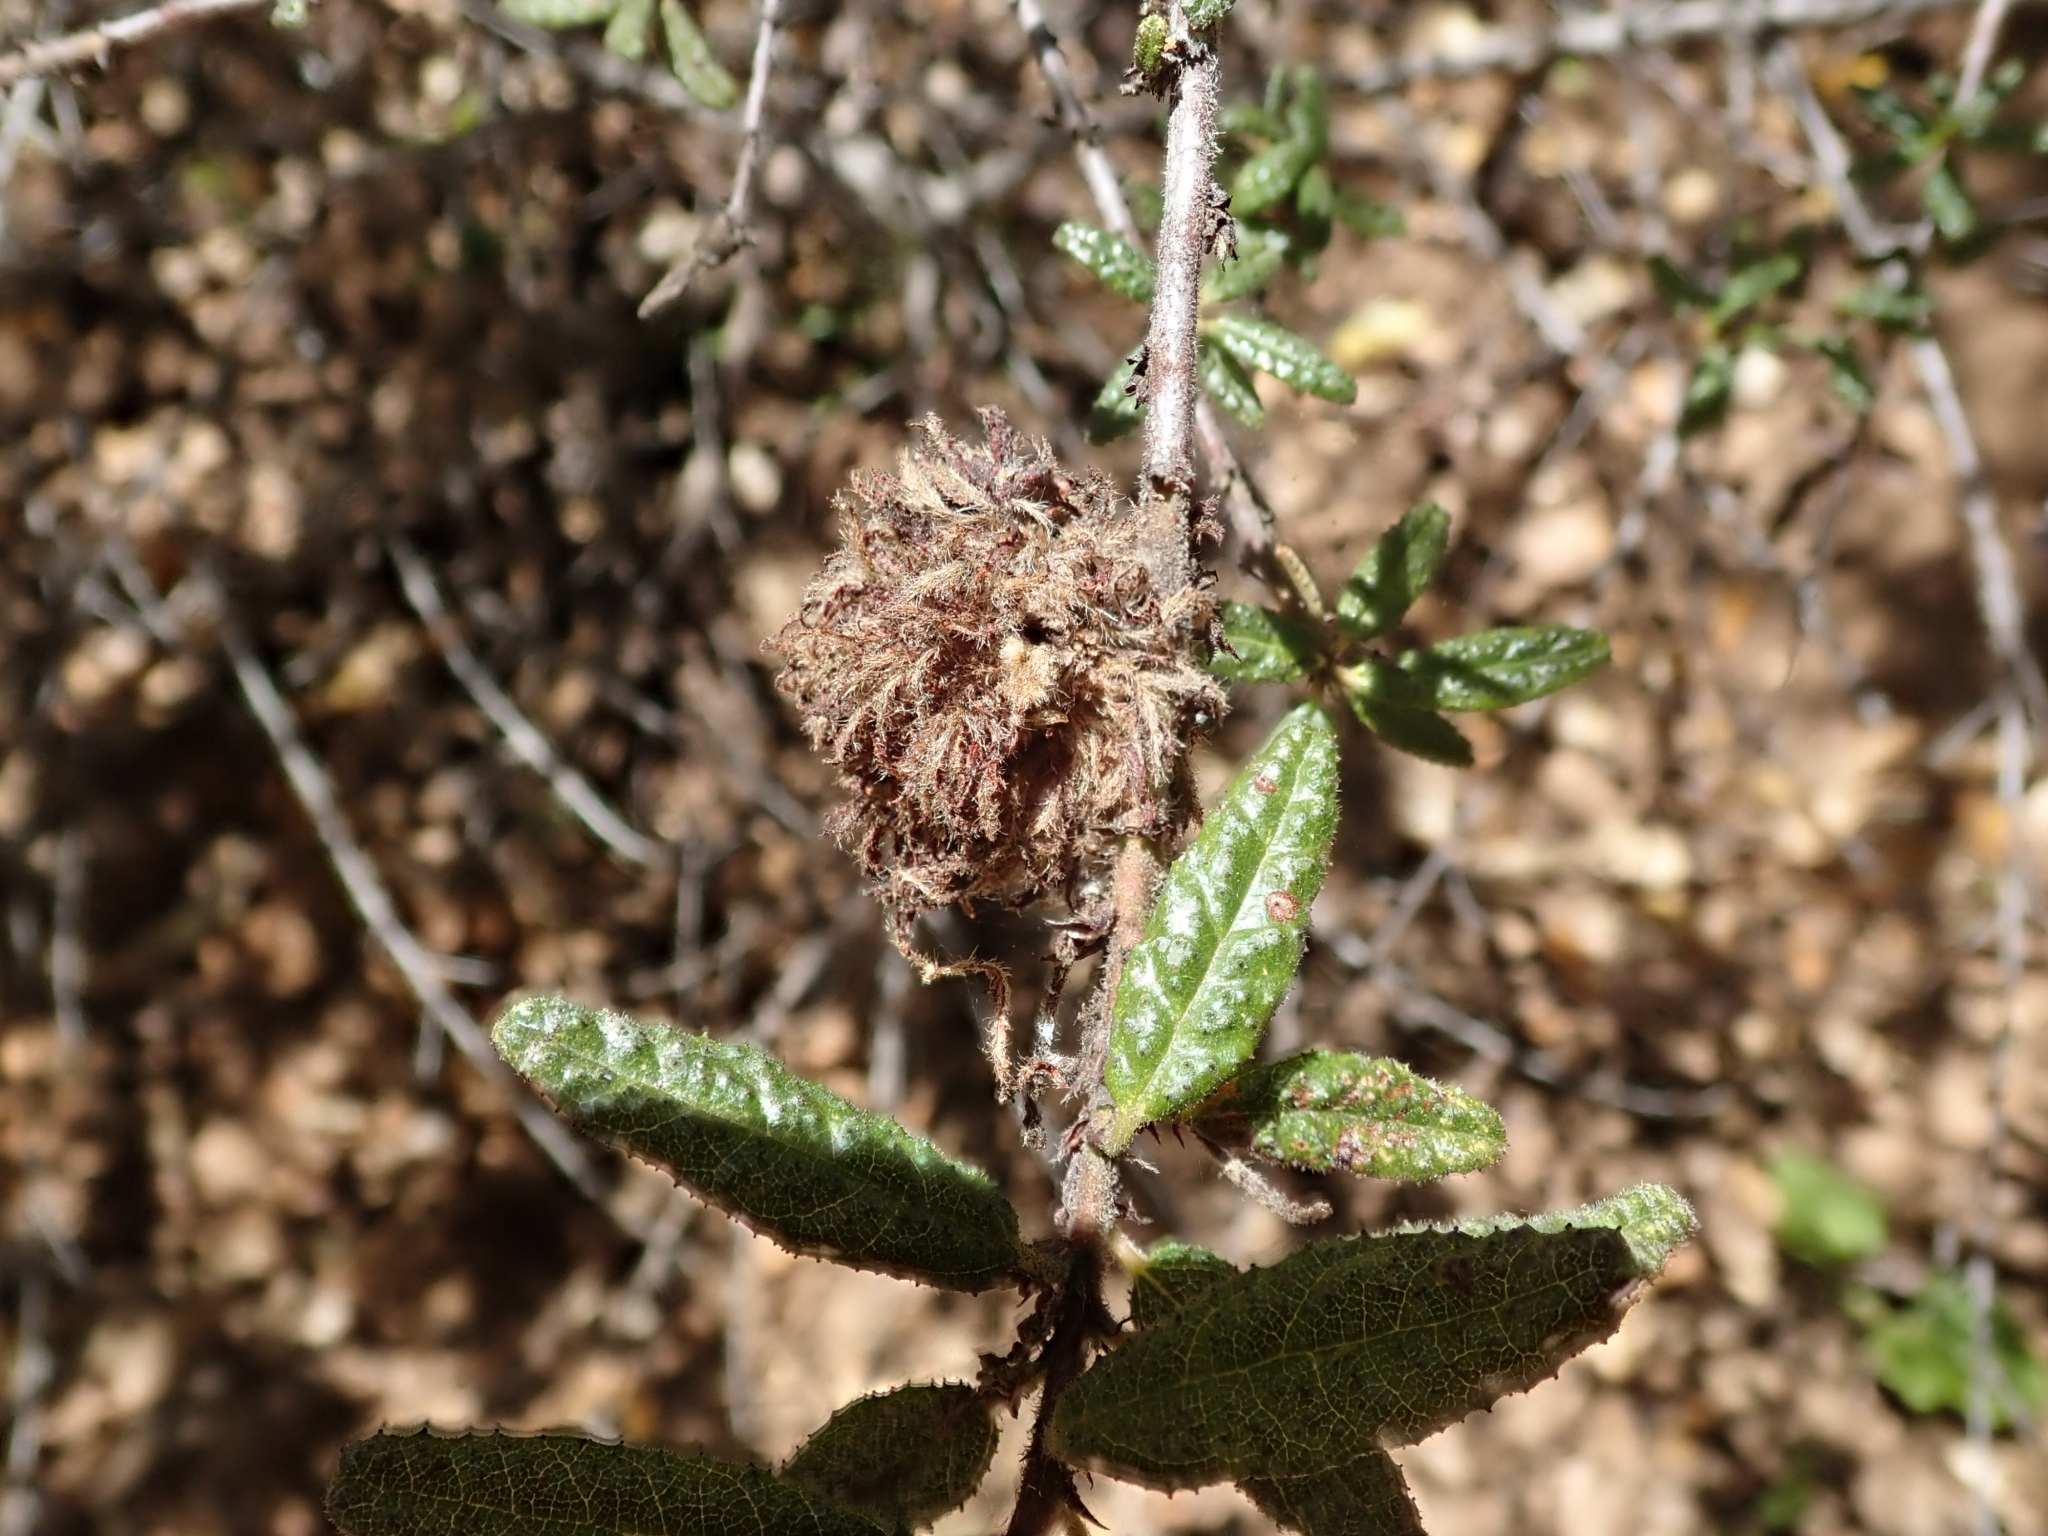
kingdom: Animalia
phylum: Arthropoda
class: Insecta
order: Diptera
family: Cecidomyiidae
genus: Asphondylia
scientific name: Asphondylia ceanothi
